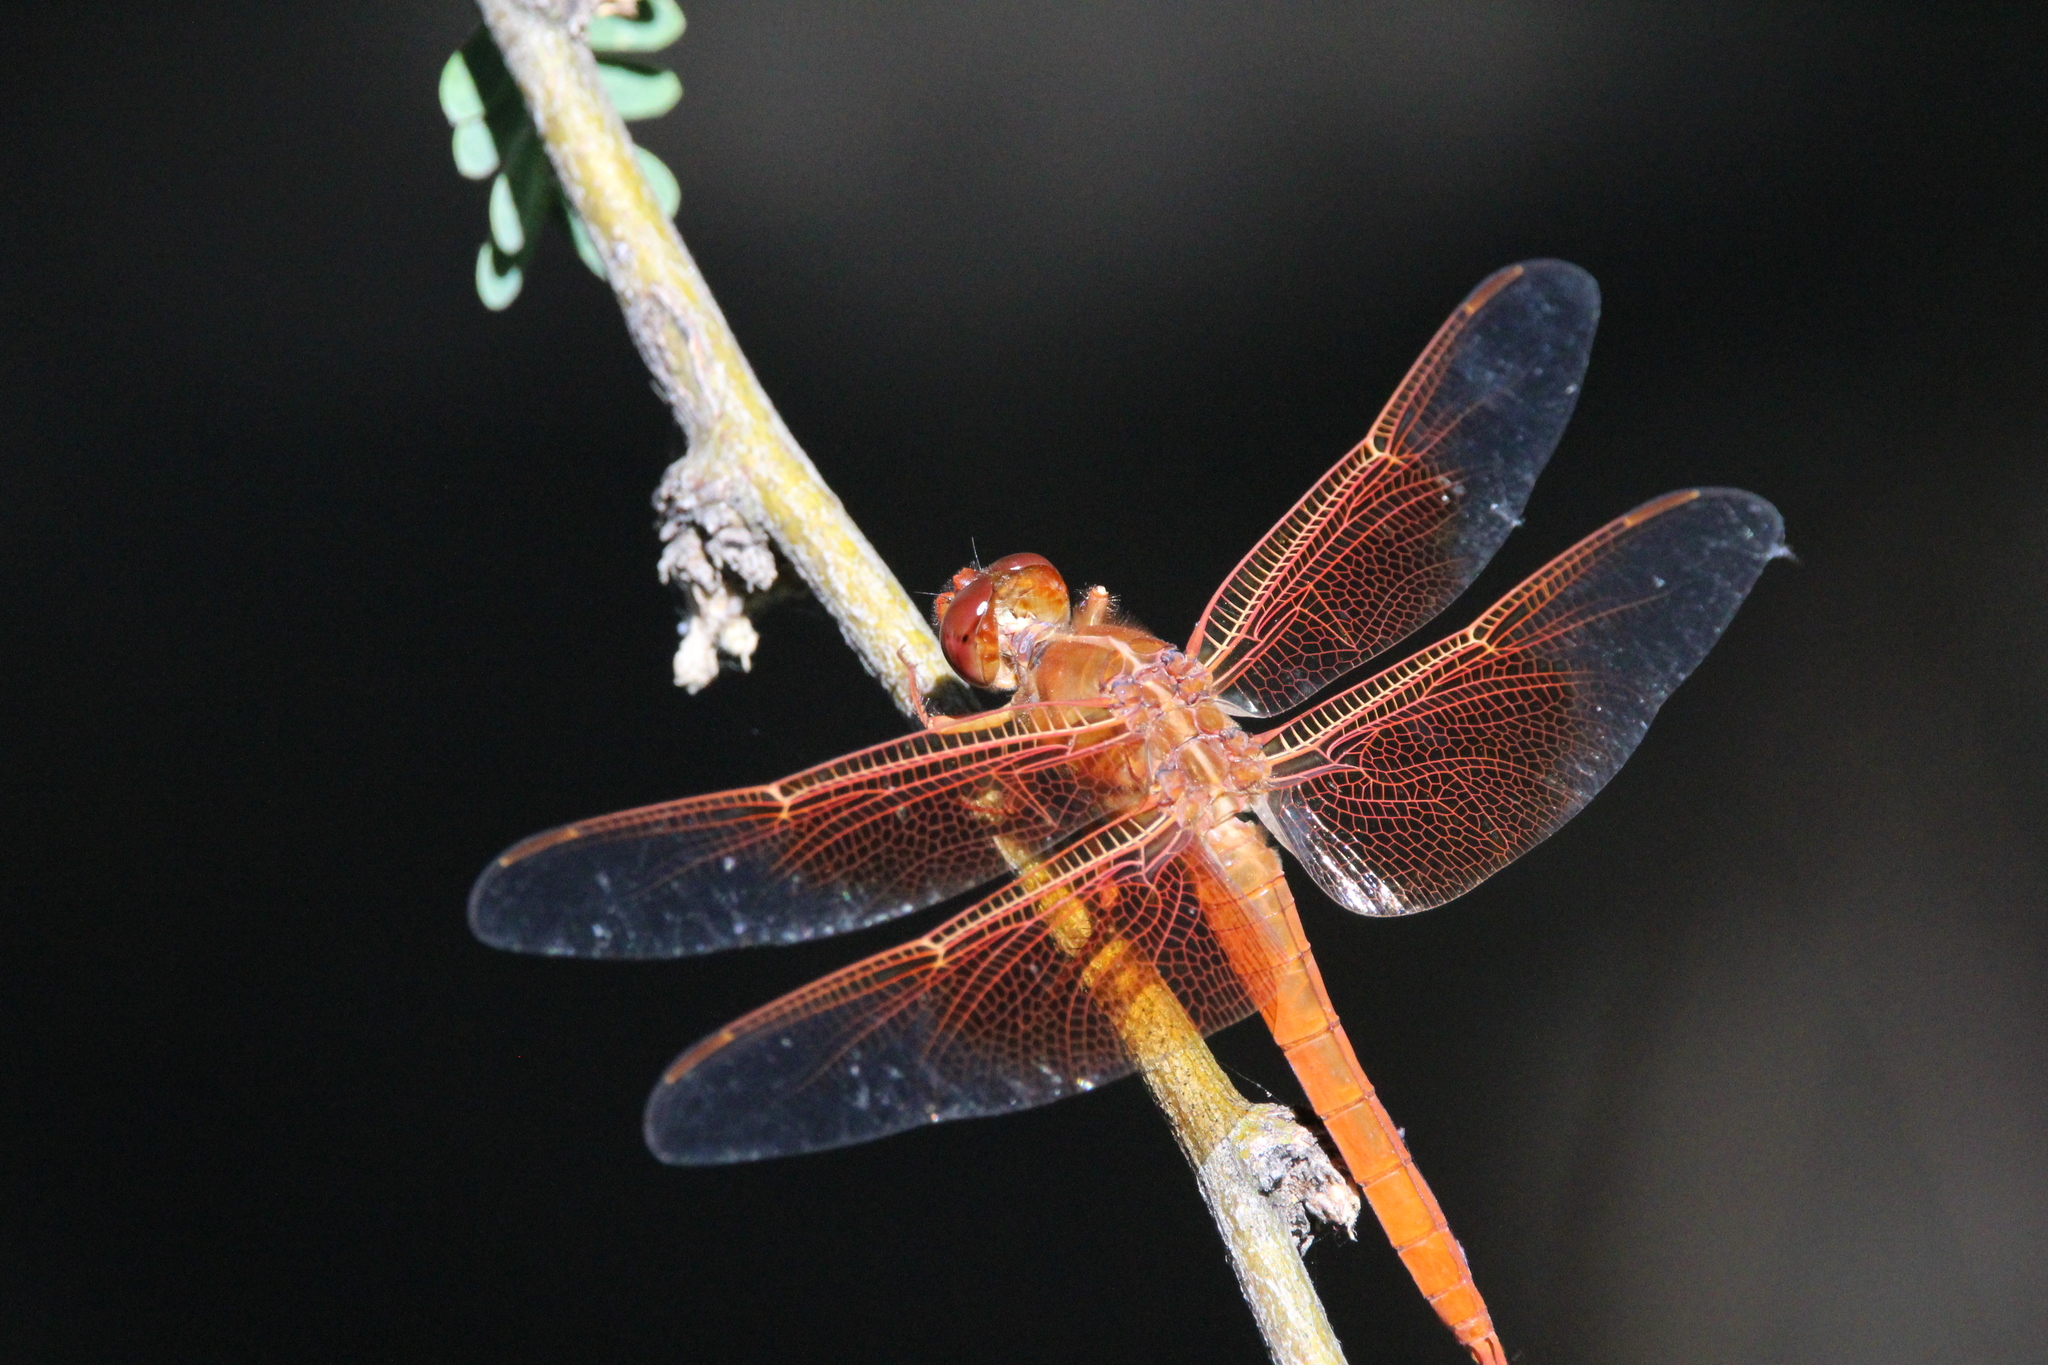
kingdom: Animalia
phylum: Arthropoda
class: Insecta
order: Odonata
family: Libellulidae
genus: Libellula
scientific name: Libellula saturata
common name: Flame skimmer
